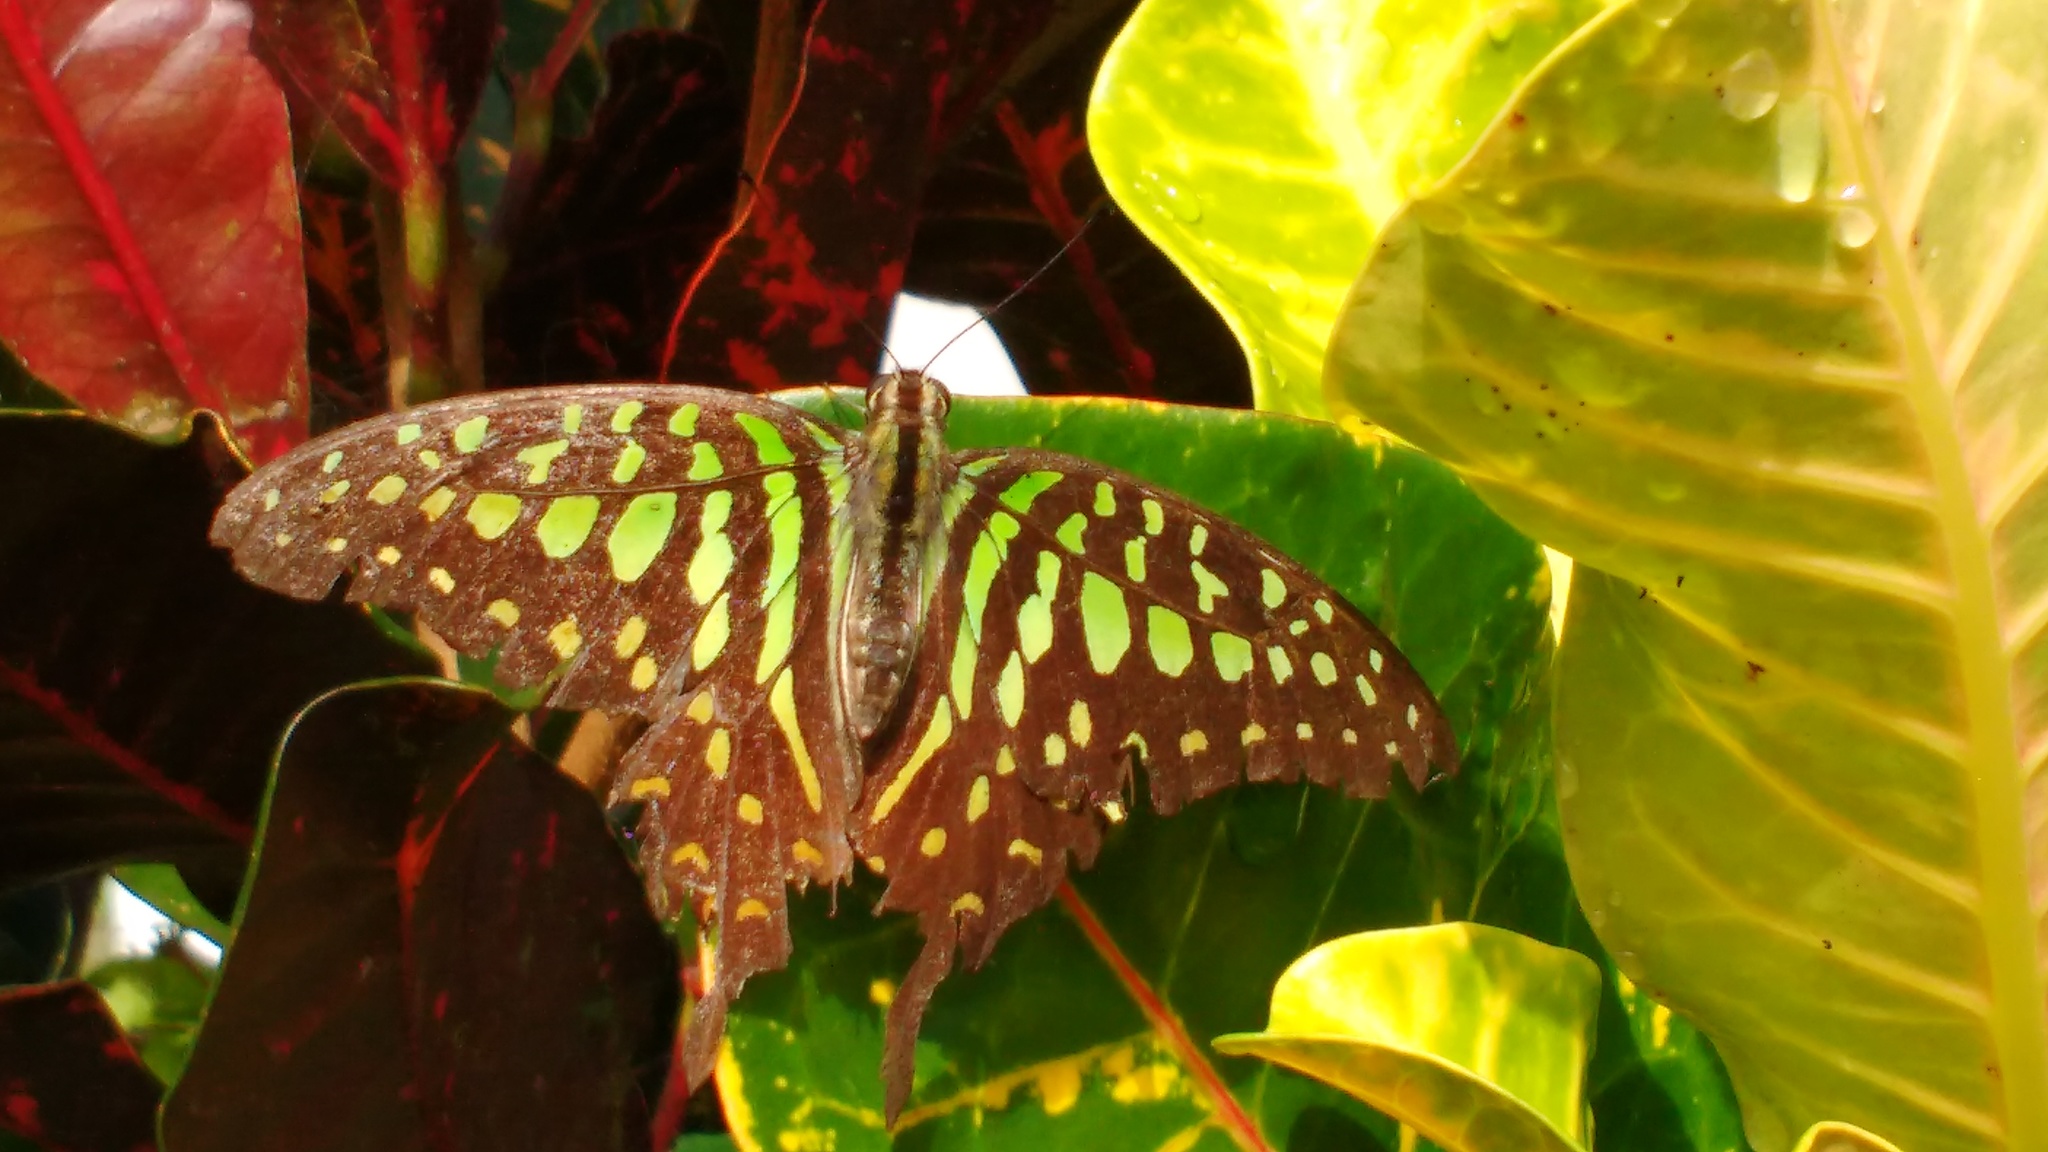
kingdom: Animalia
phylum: Arthropoda
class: Insecta
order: Lepidoptera
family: Papilionidae
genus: Graphium
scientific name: Graphium agamemnon
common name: Tailed jay
